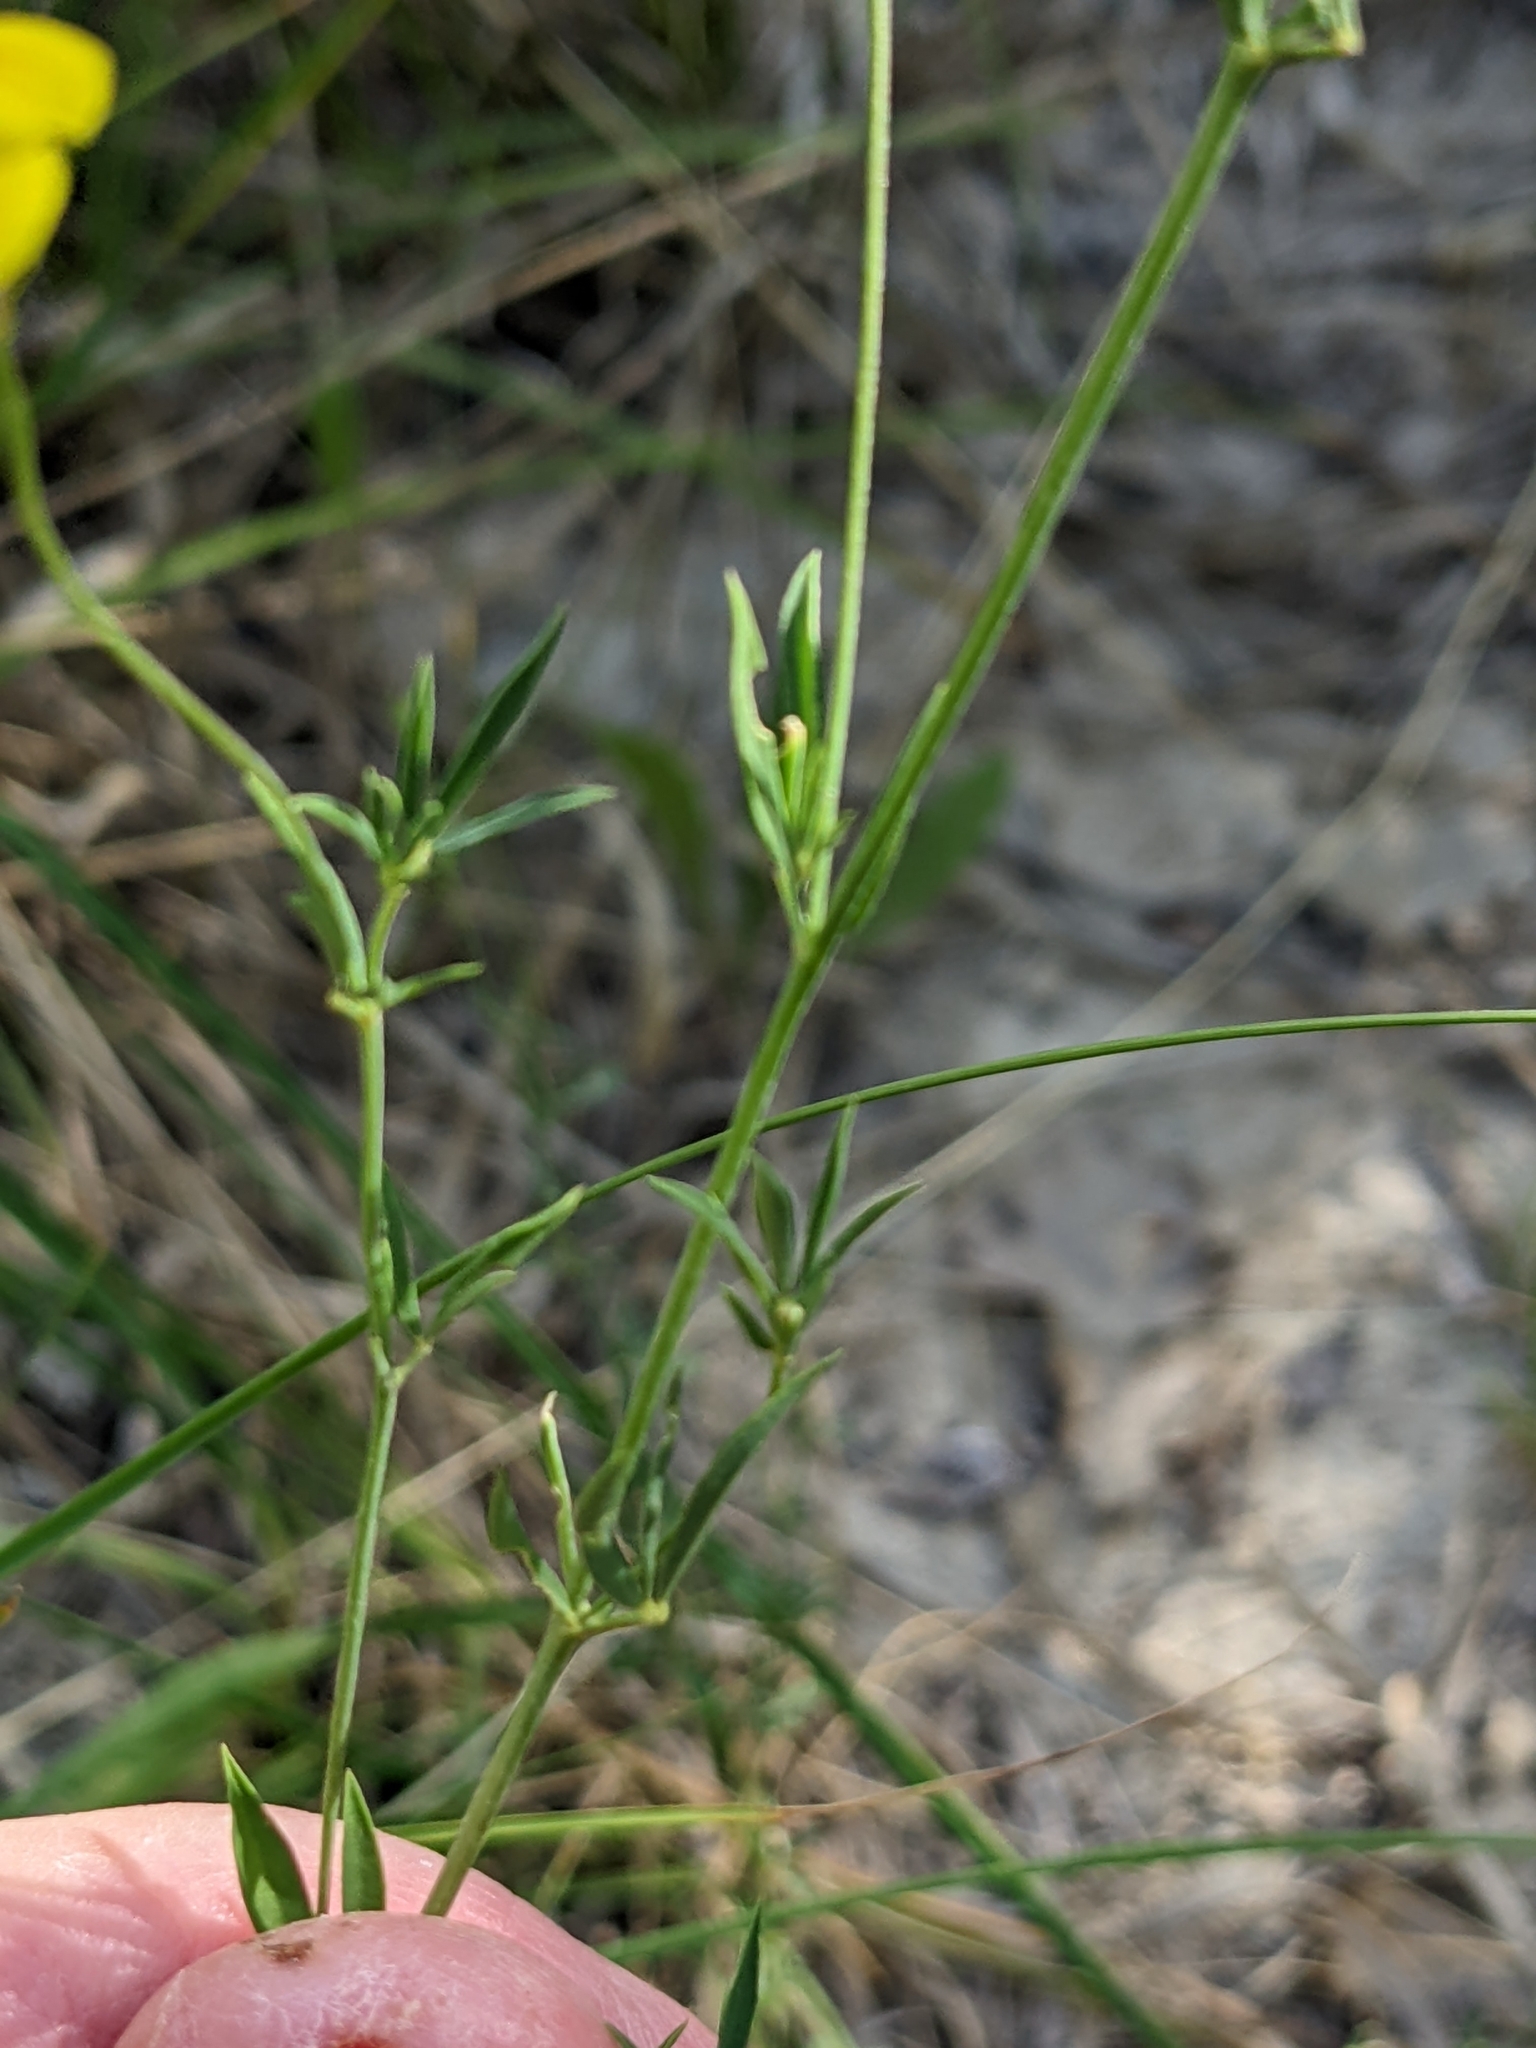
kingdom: Plantae
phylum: Tracheophyta
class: Magnoliopsida
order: Fabales
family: Fabaceae
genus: Lotus
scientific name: Lotus tenuis
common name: Narrow-leaved bird's-foot-trefoil
